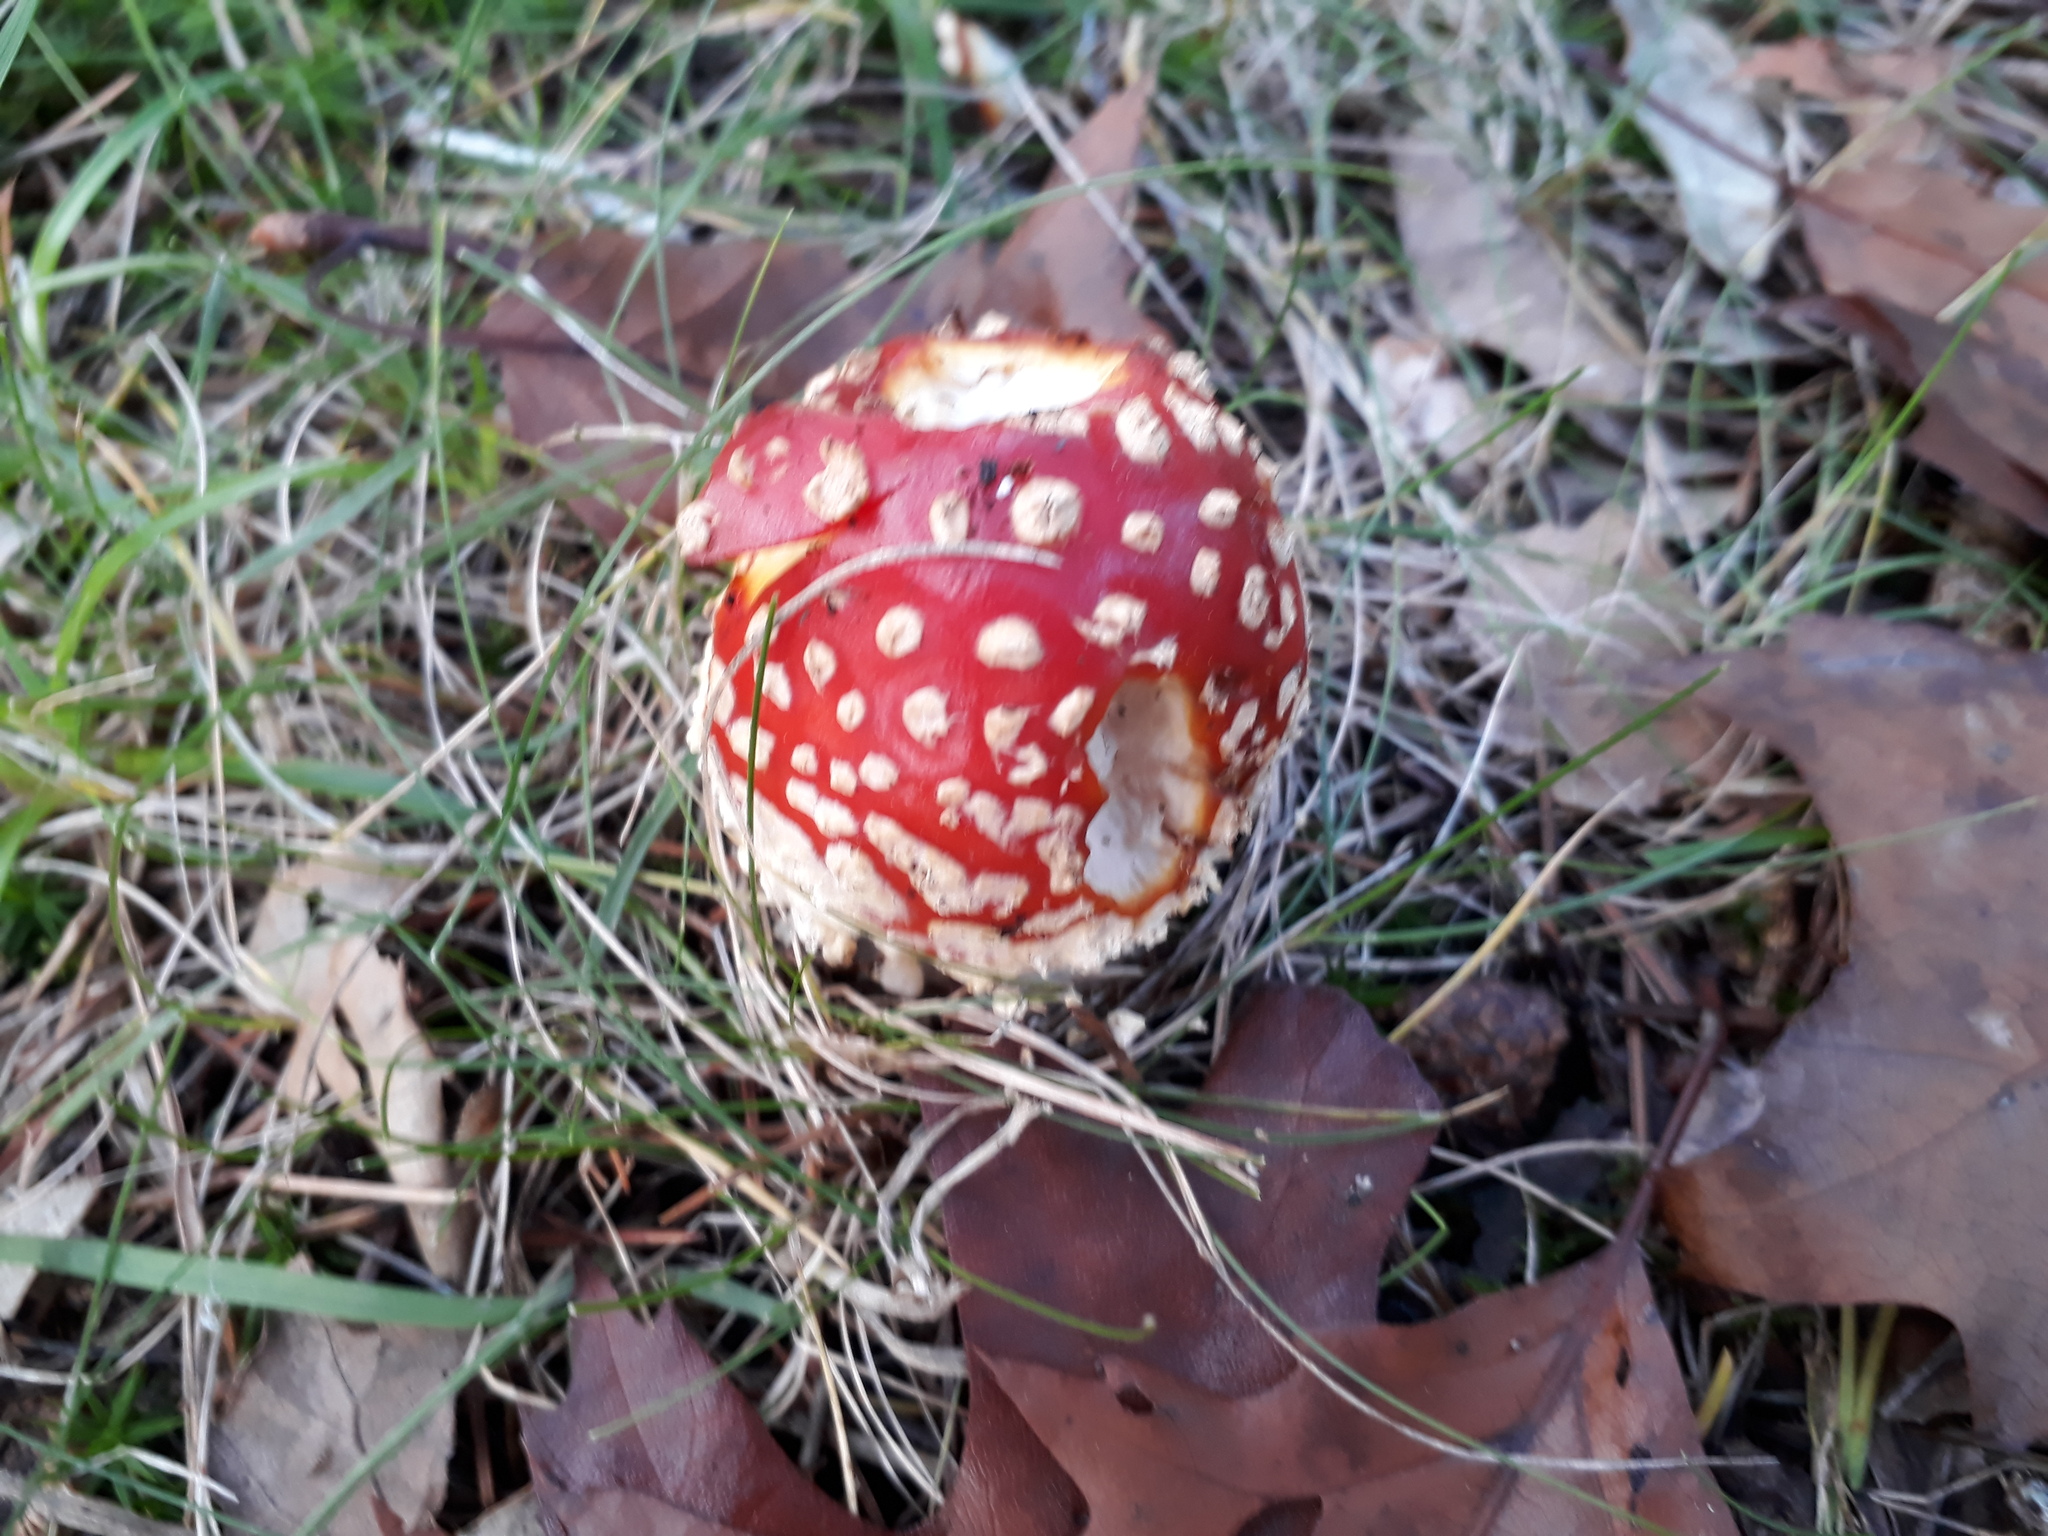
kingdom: Fungi
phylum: Basidiomycota
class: Agaricomycetes
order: Agaricales
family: Amanitaceae
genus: Amanita
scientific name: Amanita muscaria
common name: Fly agaric
